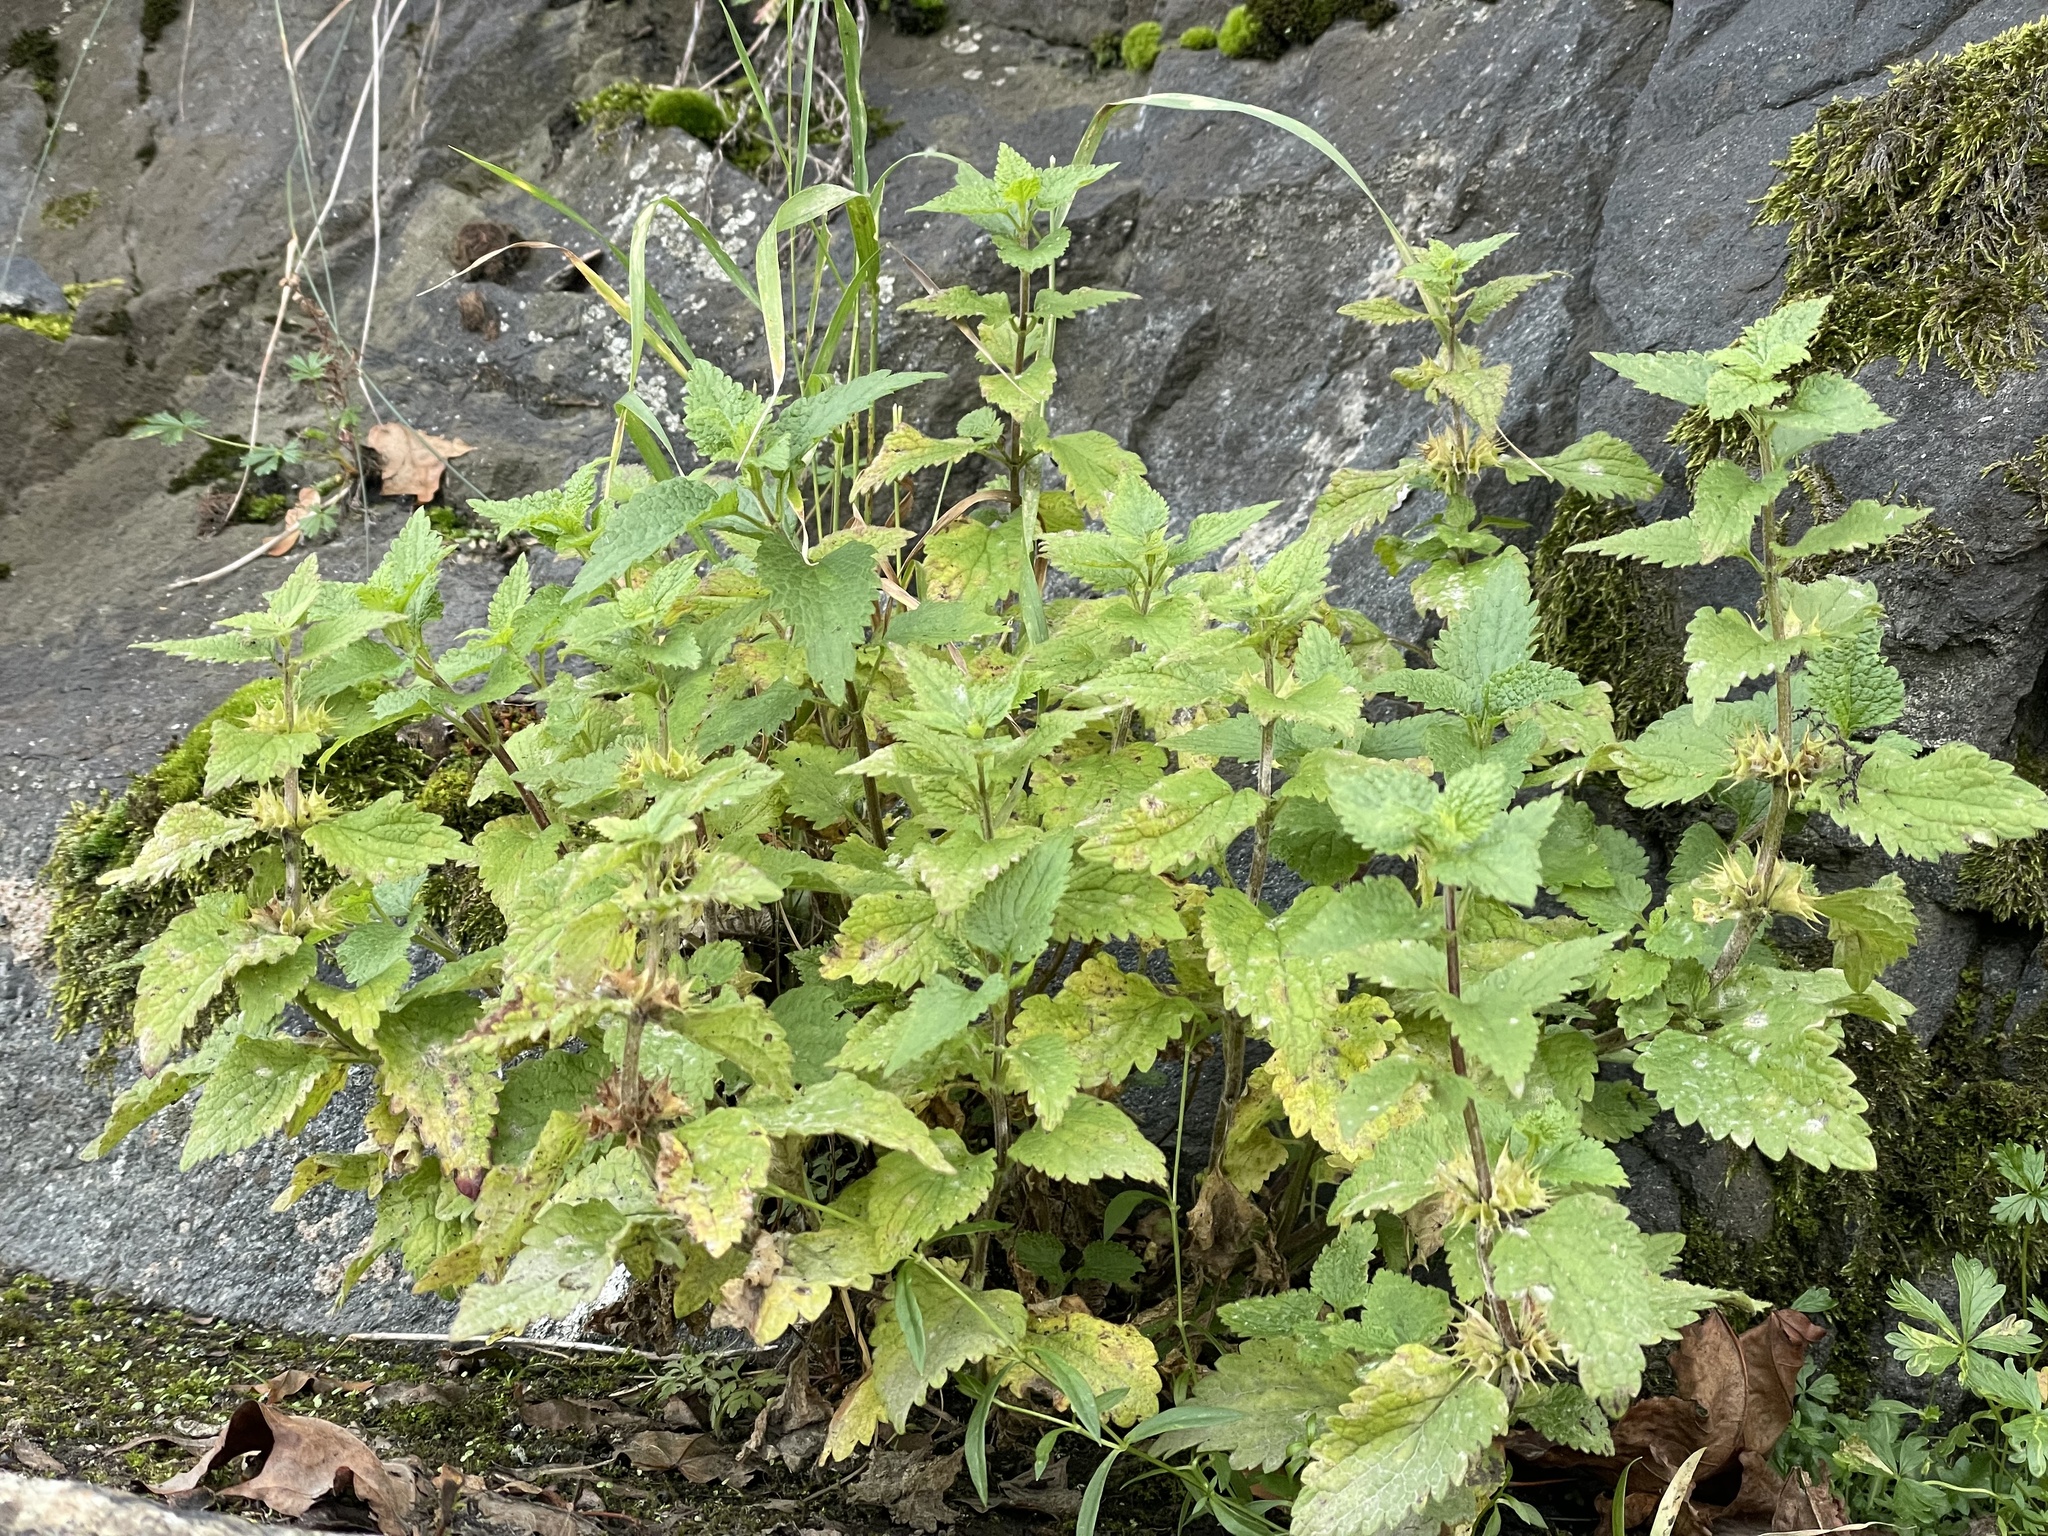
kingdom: Plantae
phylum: Tracheophyta
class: Magnoliopsida
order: Lamiales
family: Lamiaceae
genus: Lamium
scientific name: Lamium album
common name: White dead-nettle
